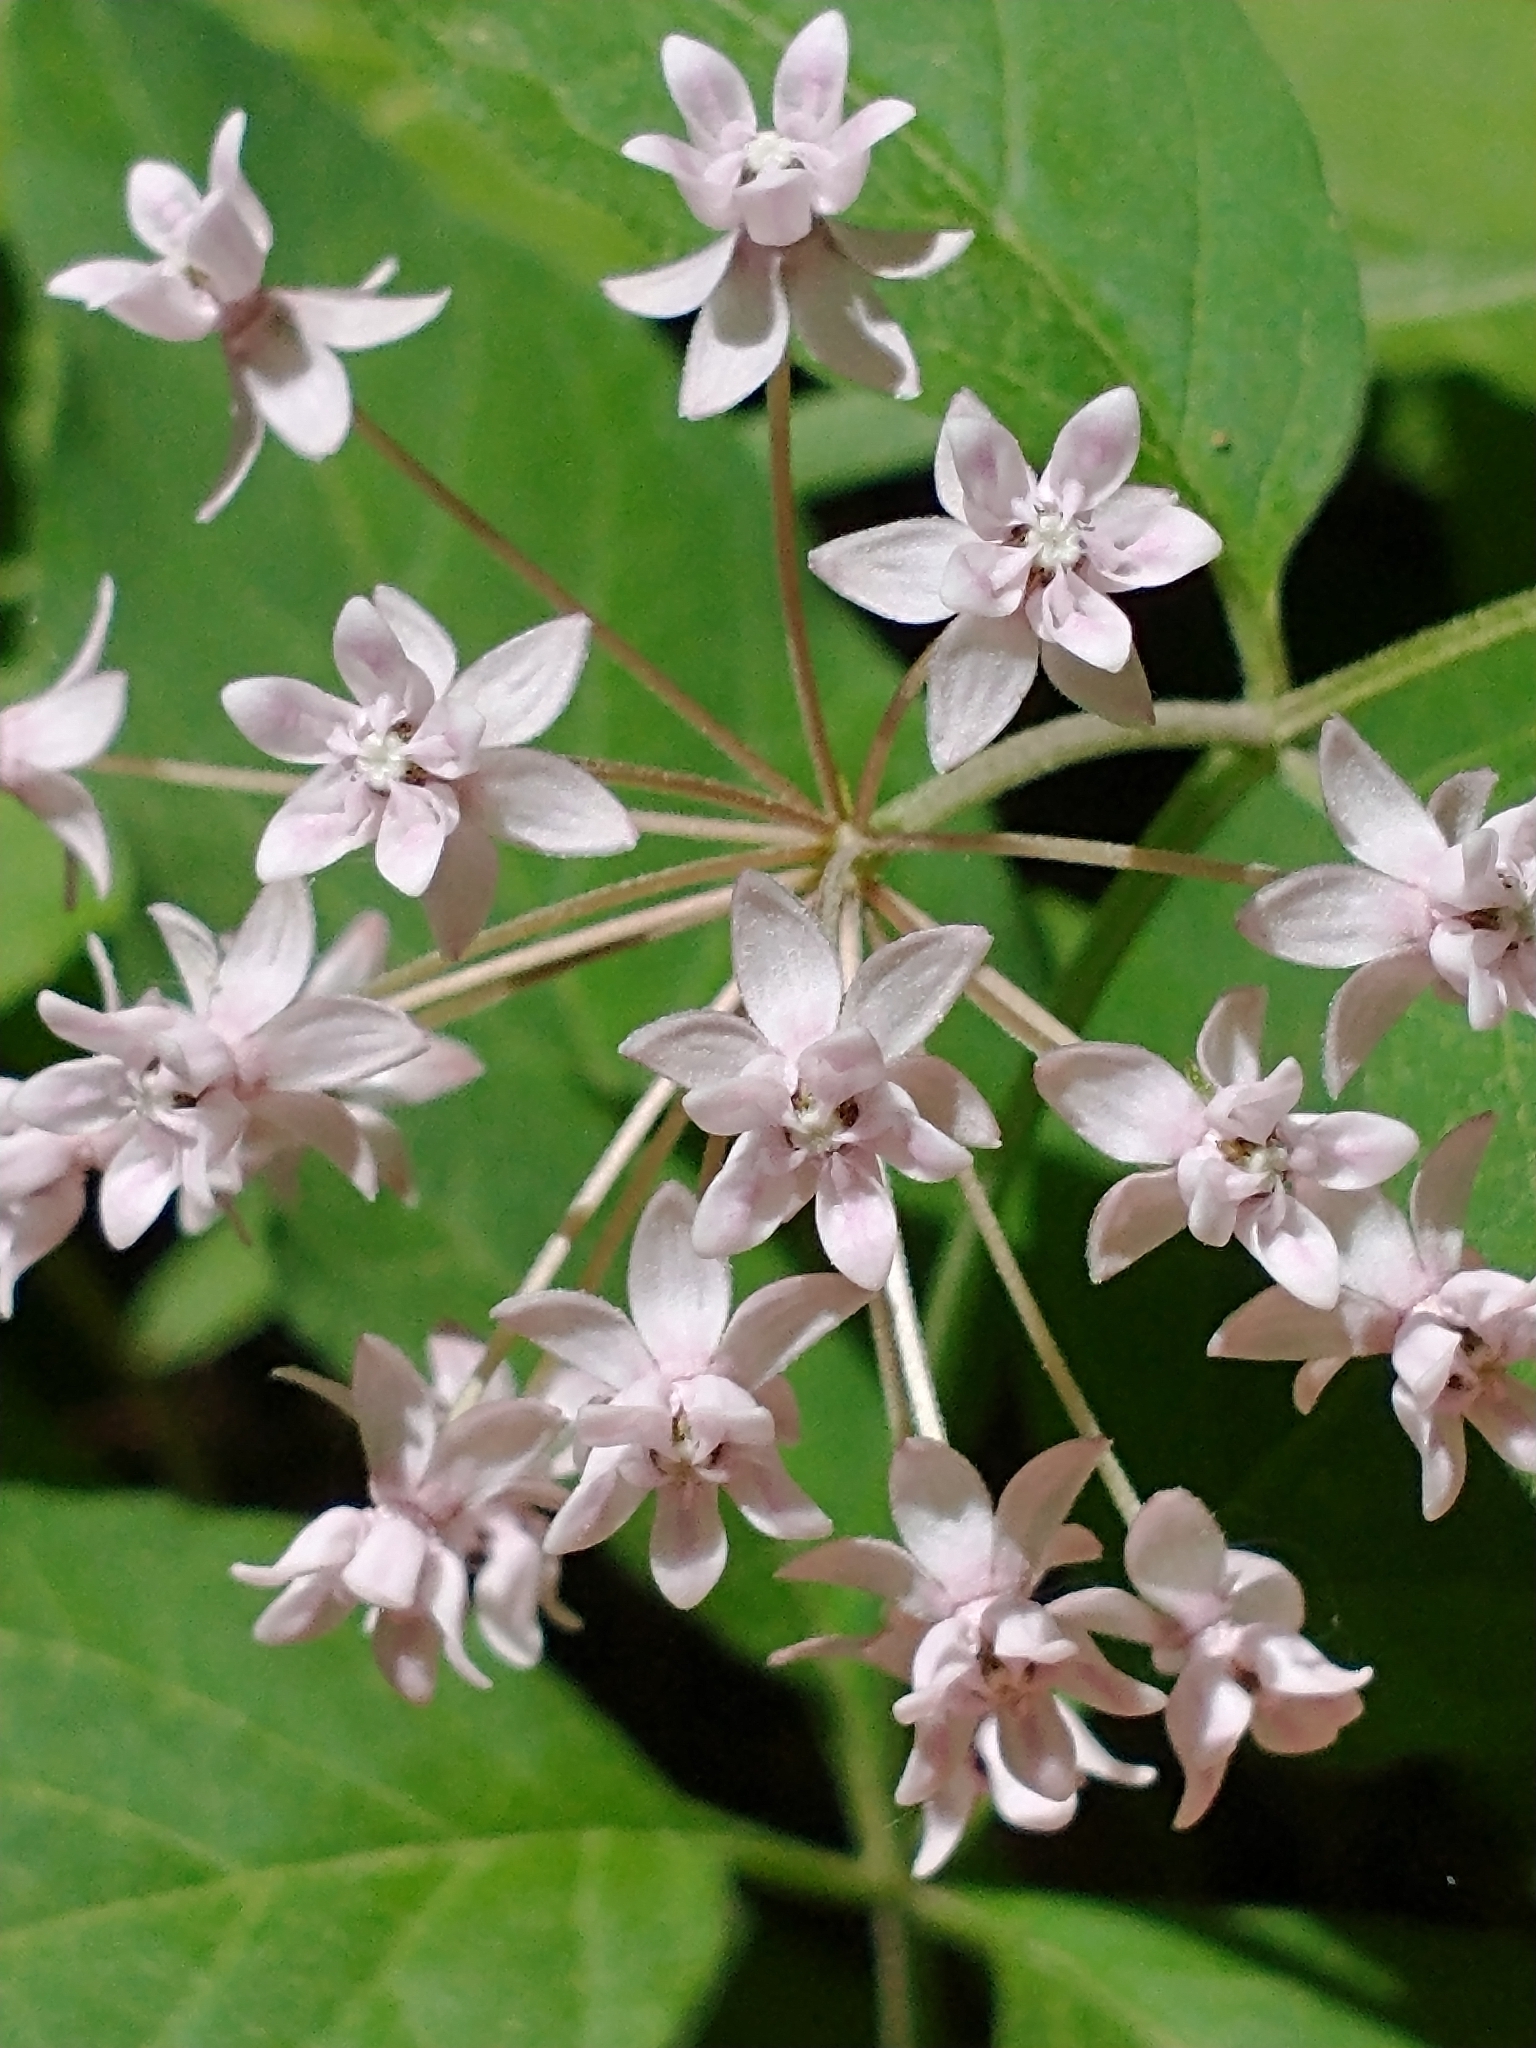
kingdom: Plantae
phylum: Tracheophyta
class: Magnoliopsida
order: Gentianales
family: Apocynaceae
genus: Asclepias
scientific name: Asclepias quadrifolia
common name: Whorled milkweed
